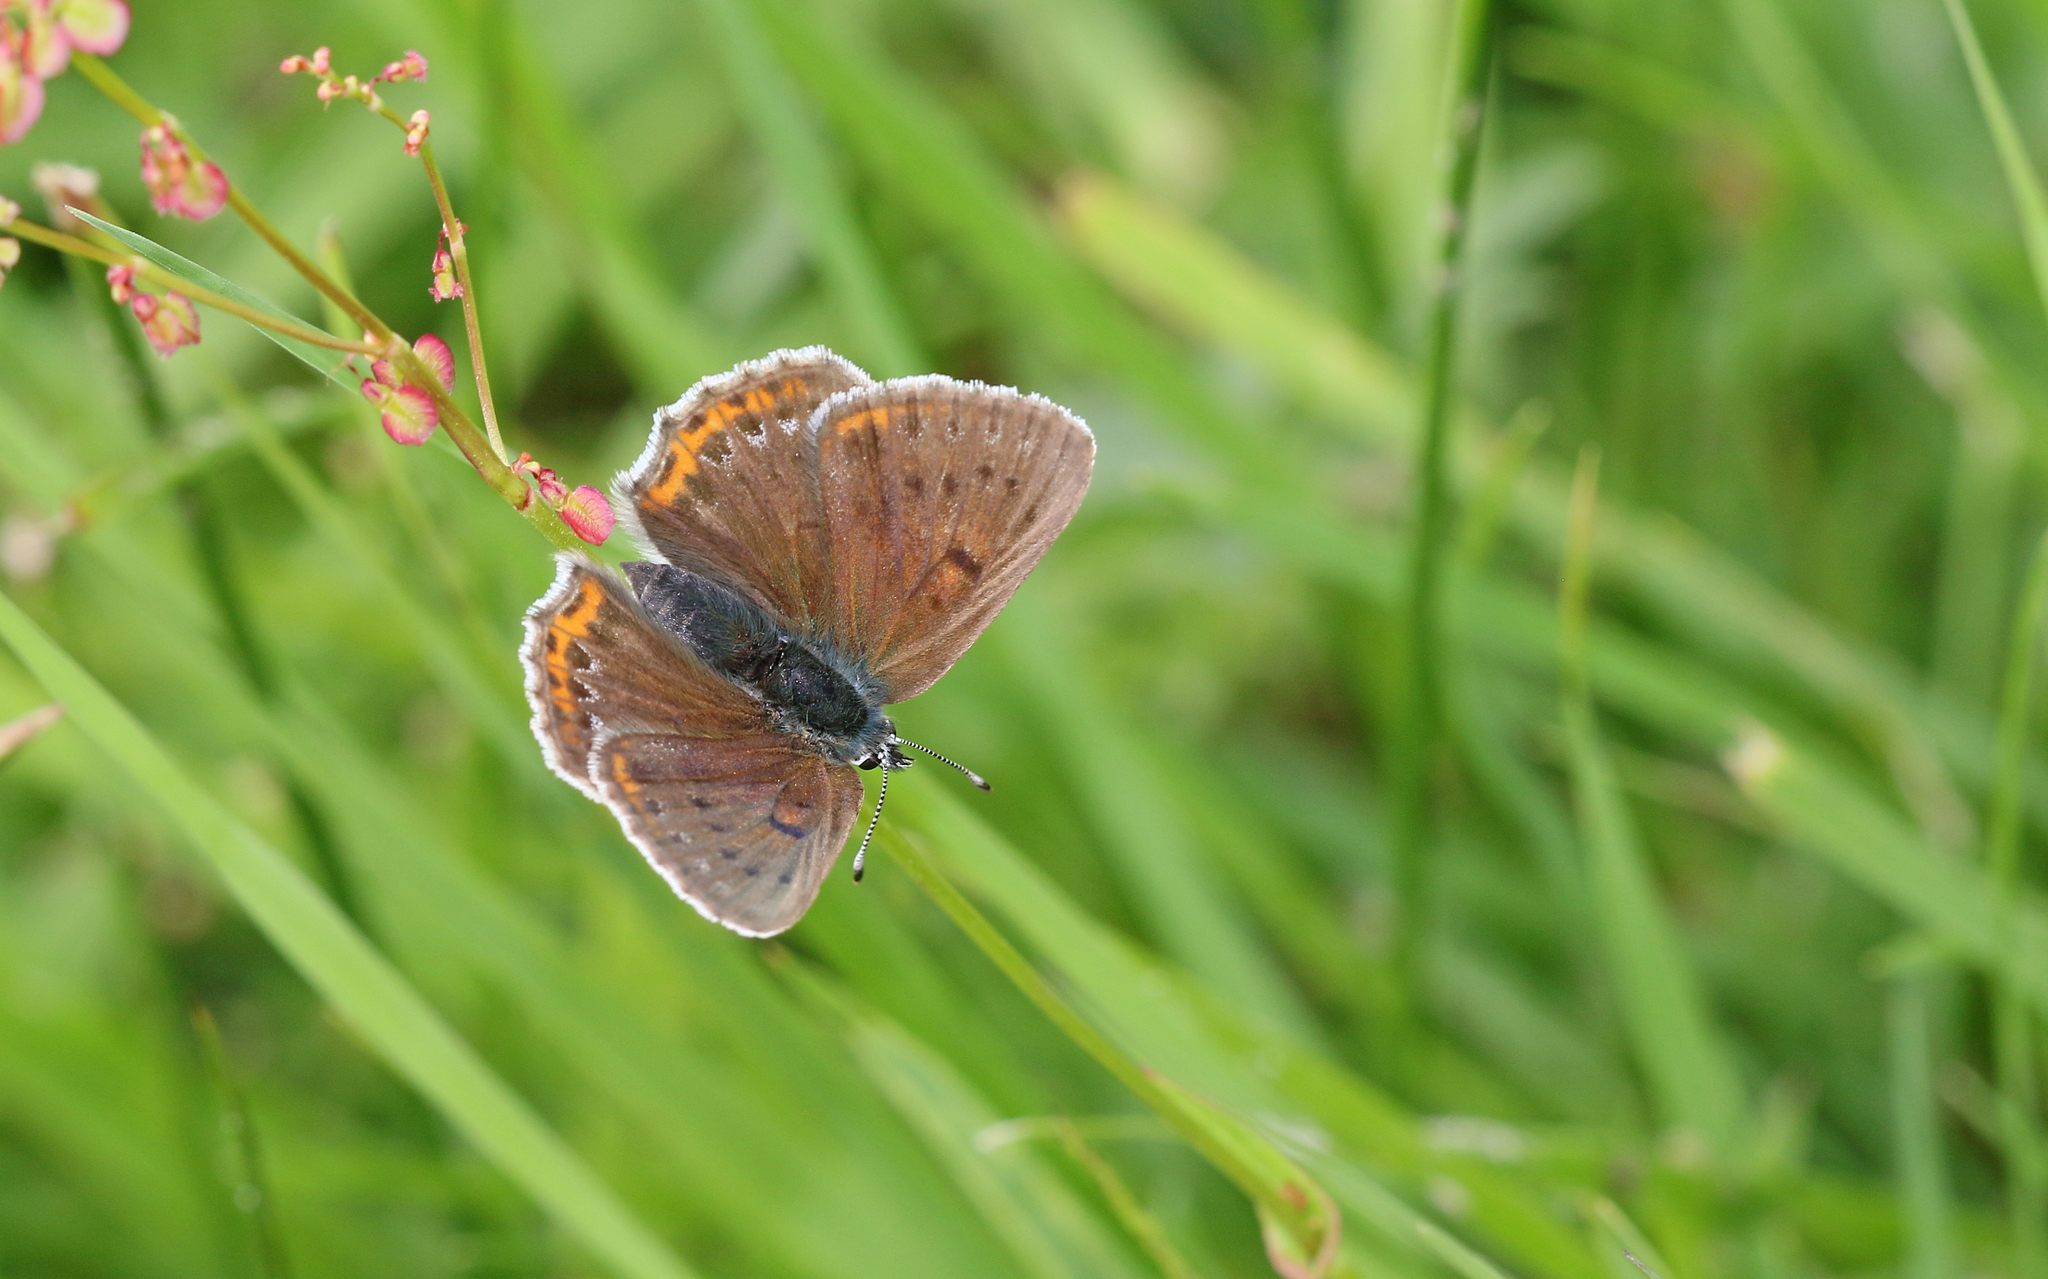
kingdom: Animalia
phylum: Arthropoda
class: Insecta
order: Lepidoptera
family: Lycaenidae
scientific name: Lycaenidae
